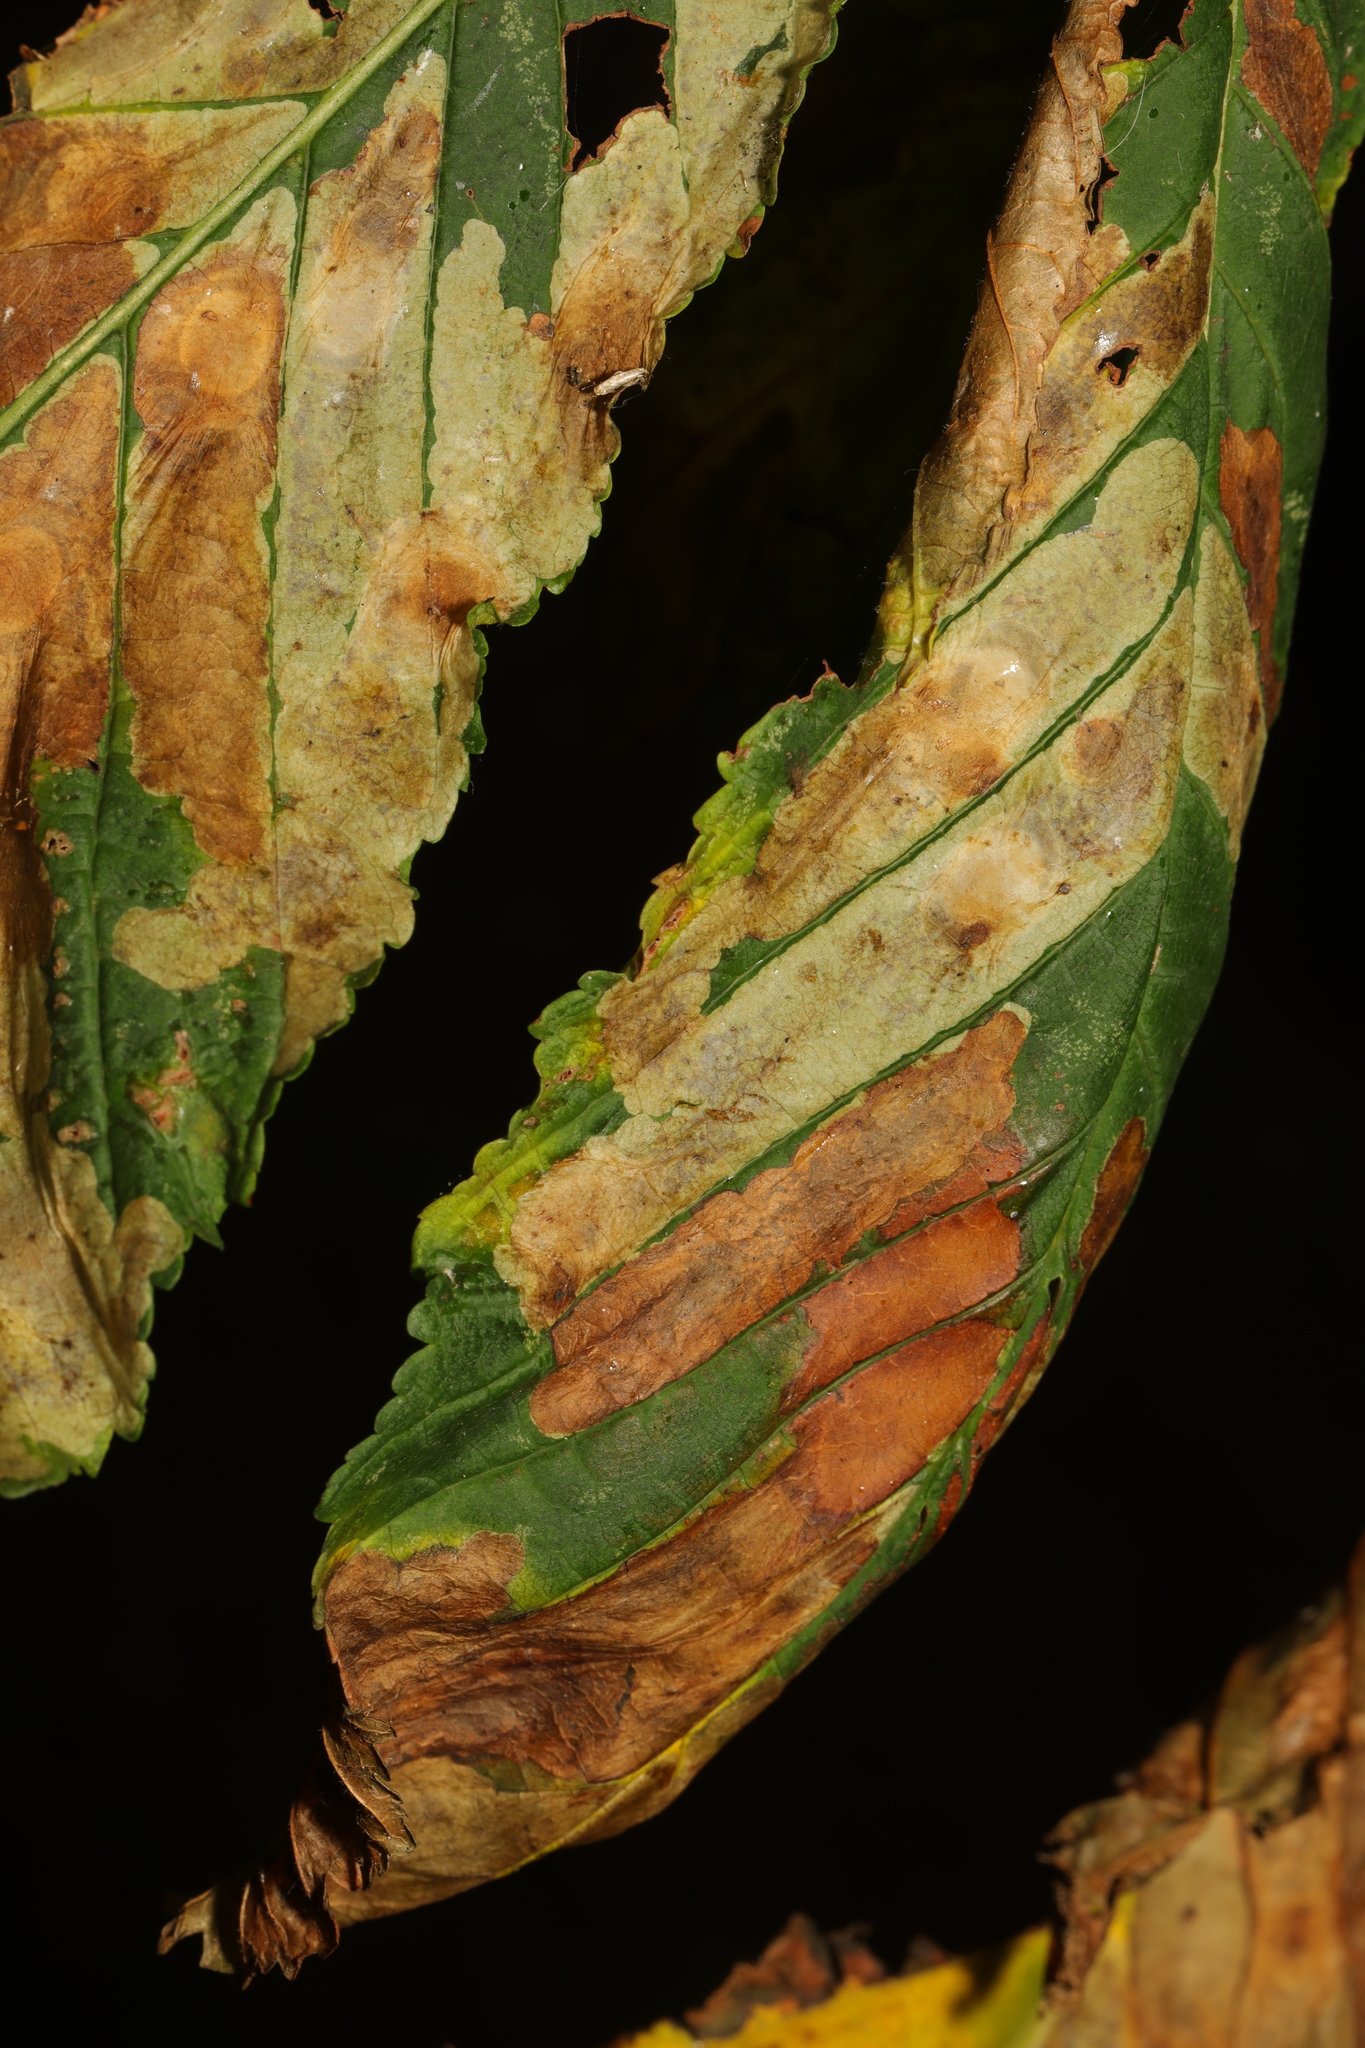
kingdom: Animalia
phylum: Arthropoda
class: Insecta
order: Lepidoptera
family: Gracillariidae
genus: Cameraria
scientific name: Cameraria ohridella
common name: Horse-chestnut leaf-miner
